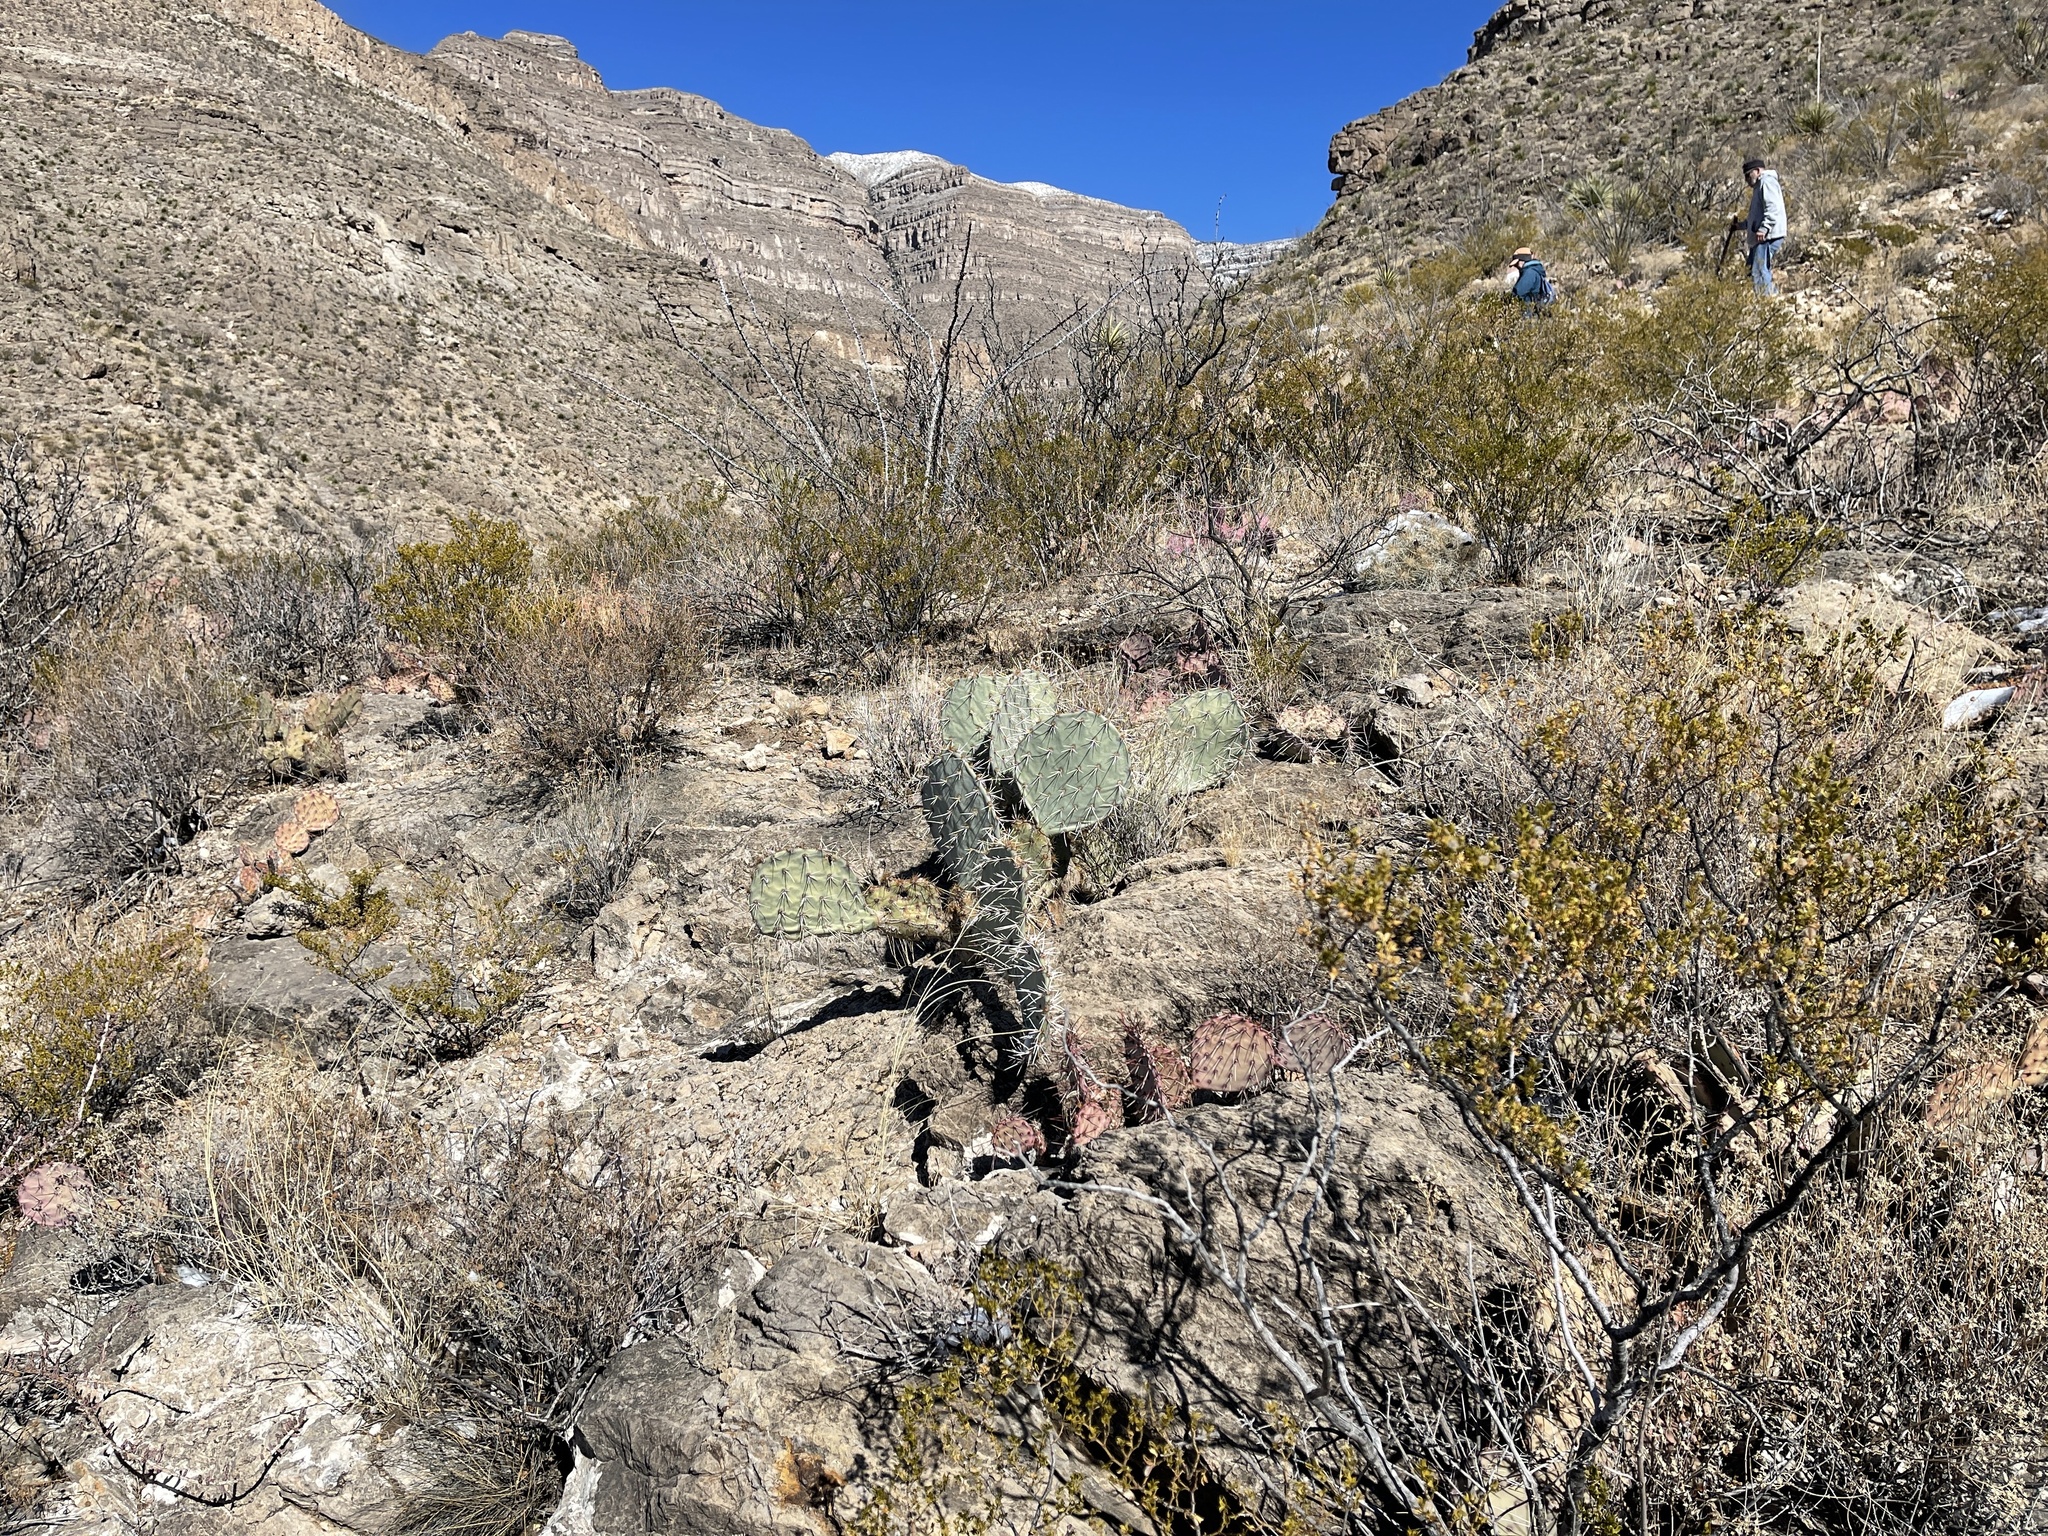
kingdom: Plantae
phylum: Tracheophyta
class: Magnoliopsida
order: Caryophyllales
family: Cactaceae
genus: Opuntia
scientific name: Opuntia phaeacantha
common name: New mexico prickly-pear
